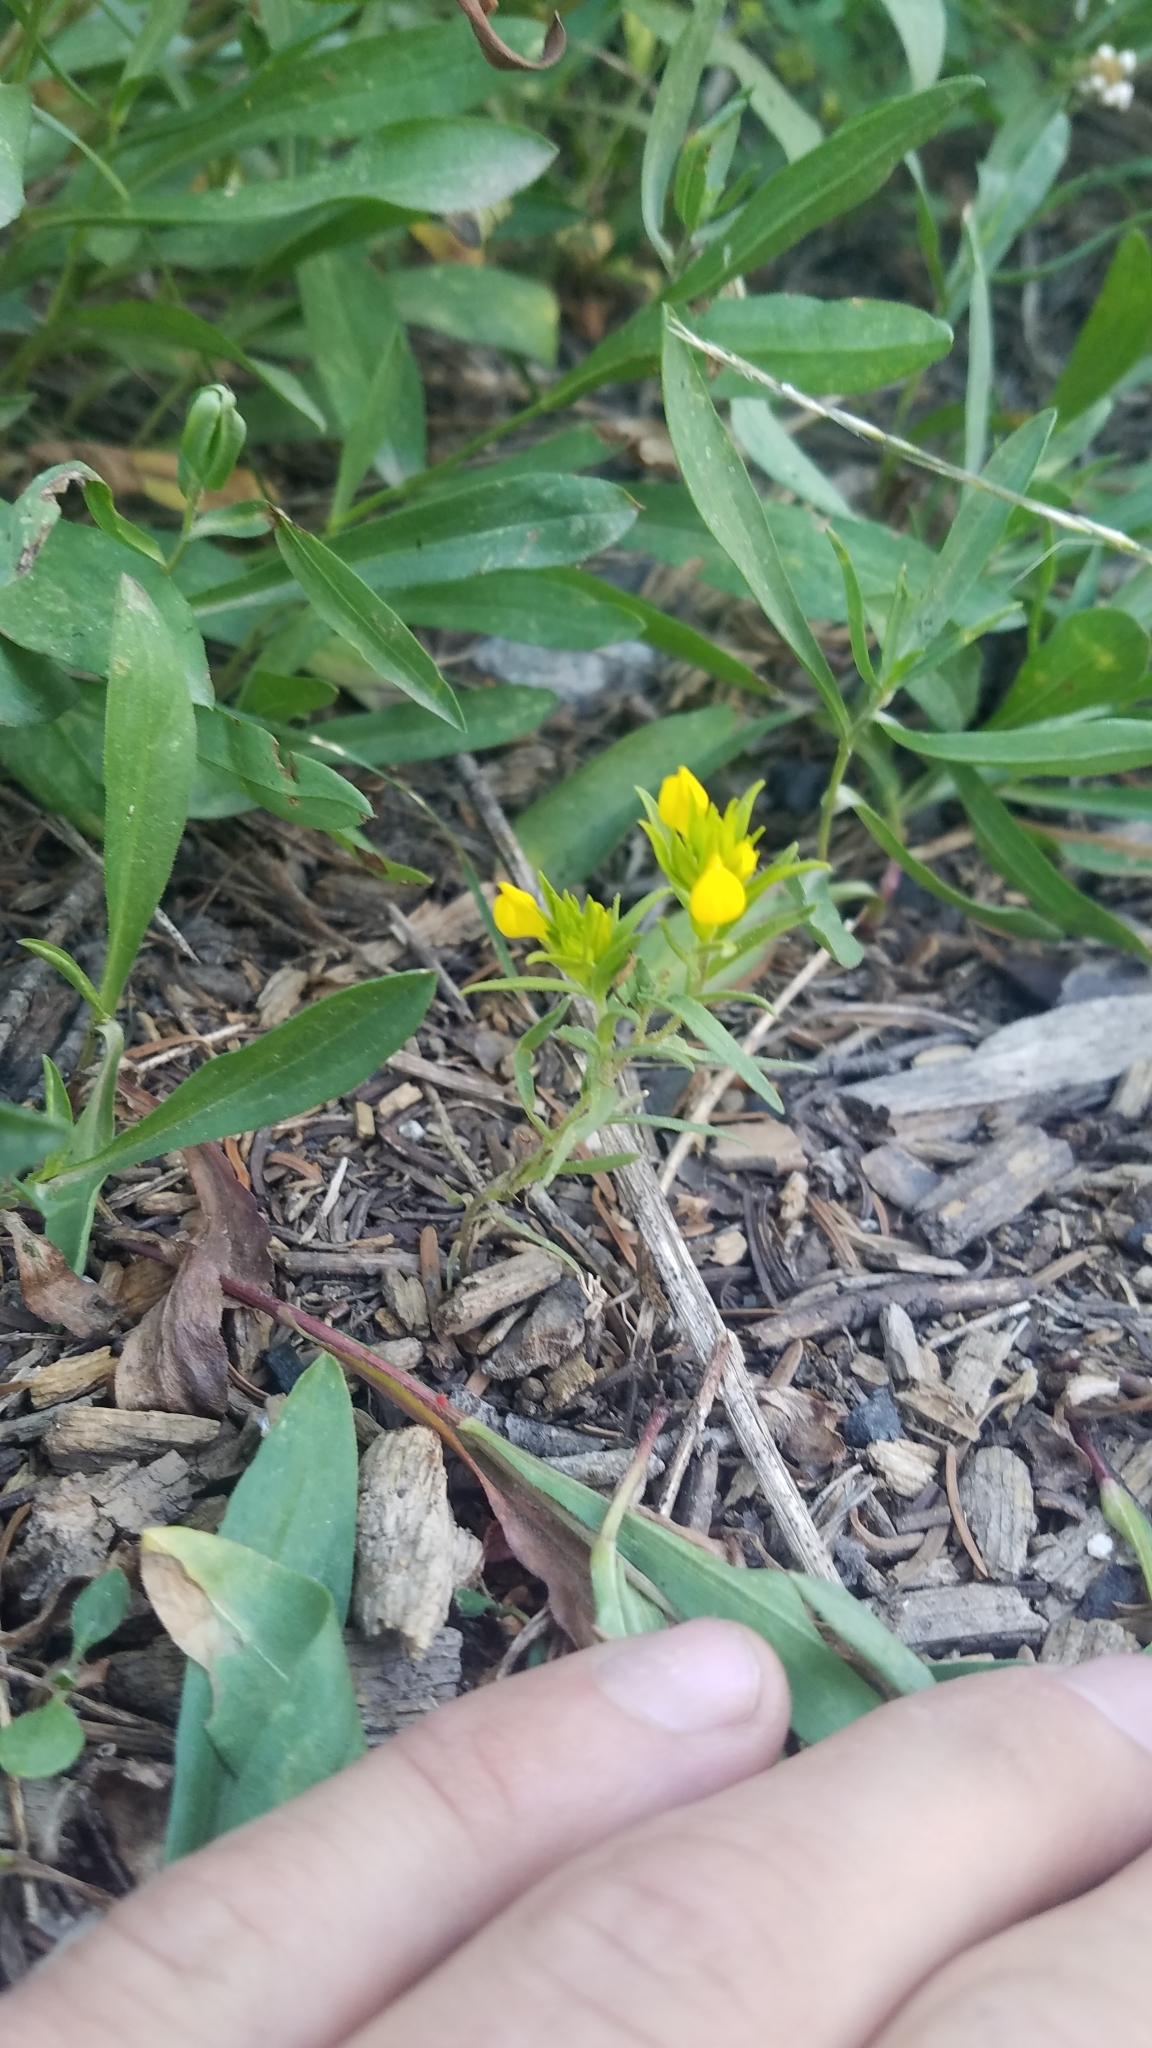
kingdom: Plantae
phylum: Tracheophyta
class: Magnoliopsida
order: Lamiales
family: Orobanchaceae
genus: Orthocarpus
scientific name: Orthocarpus tolmiei
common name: Tolmie's owl-clover
